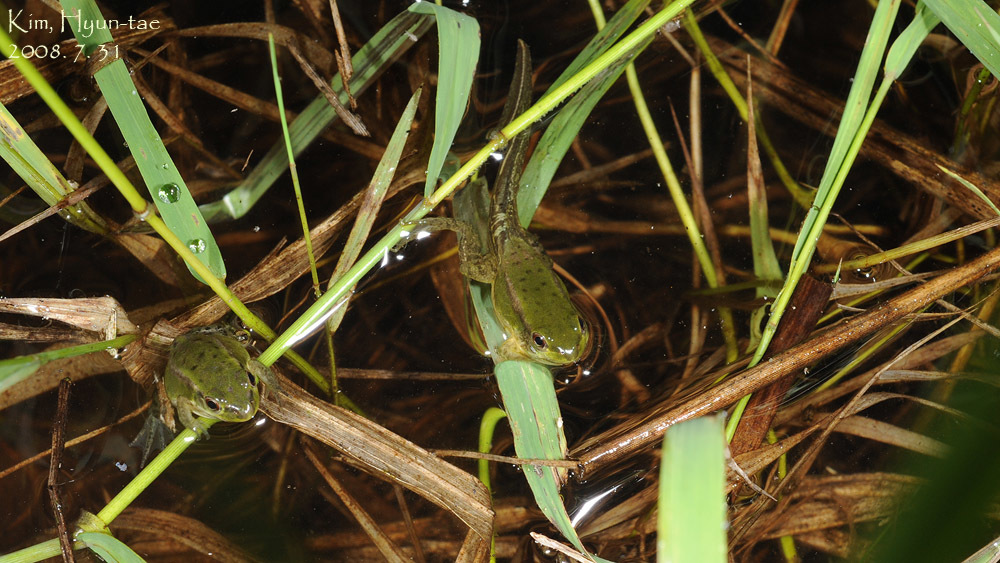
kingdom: Animalia
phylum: Chordata
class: Amphibia
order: Anura
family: Ranidae
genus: Pelophylax
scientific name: Pelophylax chosenicus
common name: Gold-spotted pond frog
